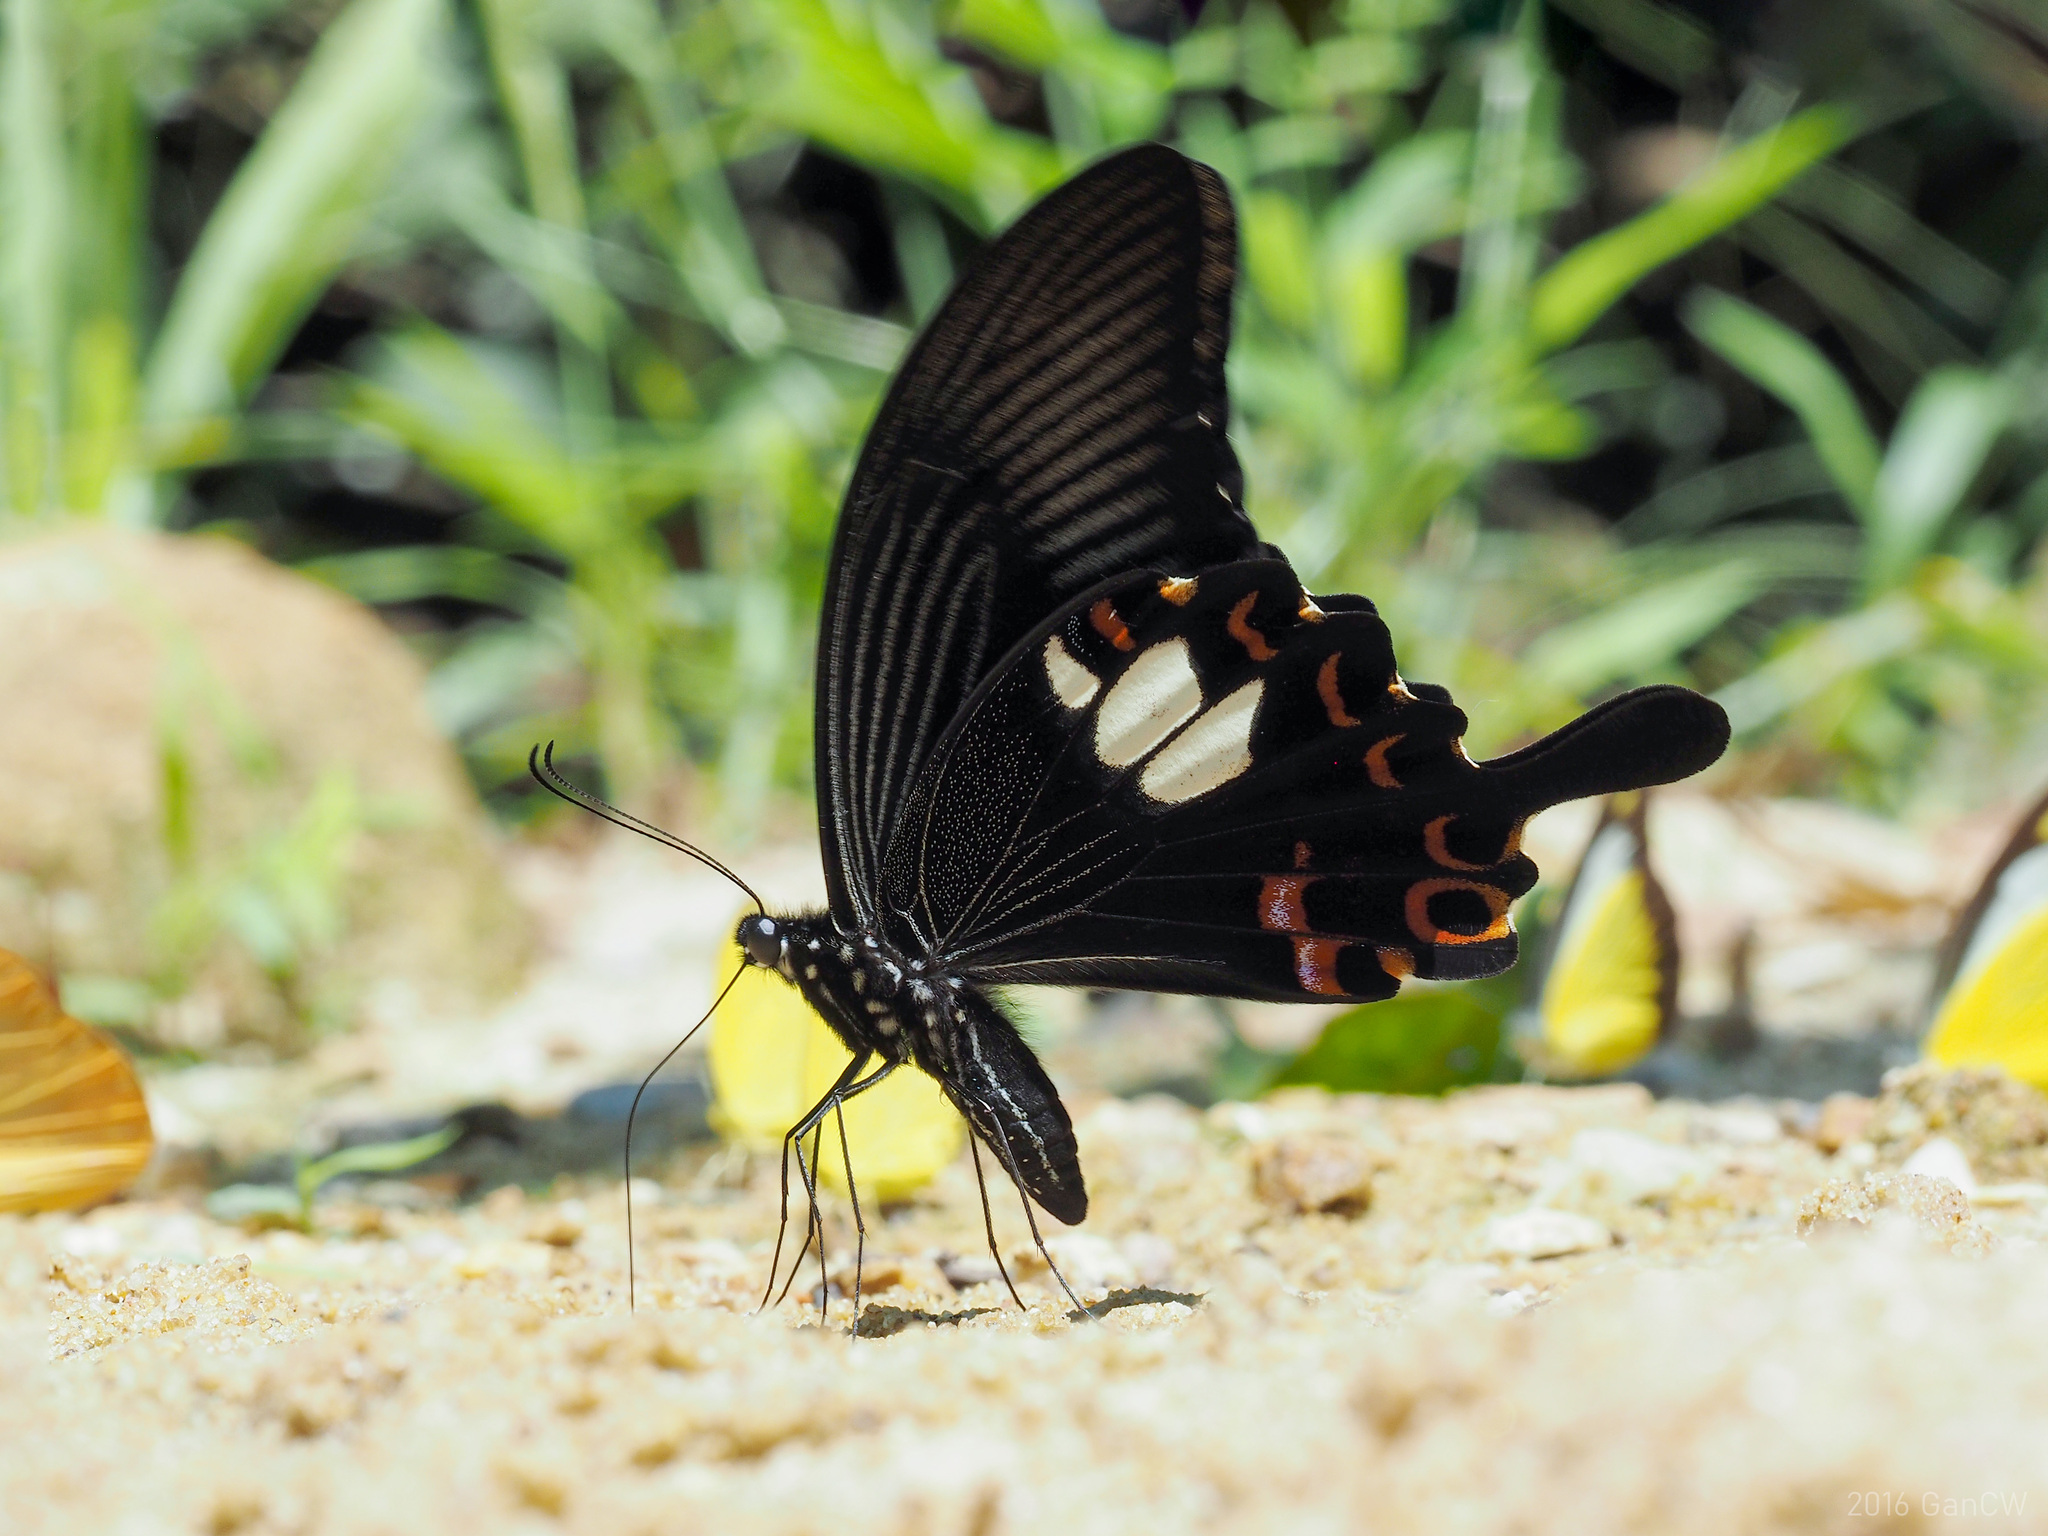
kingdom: Animalia
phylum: Arthropoda
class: Insecta
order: Lepidoptera
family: Papilionidae
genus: Papilio
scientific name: Papilio helenus
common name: Red helen
